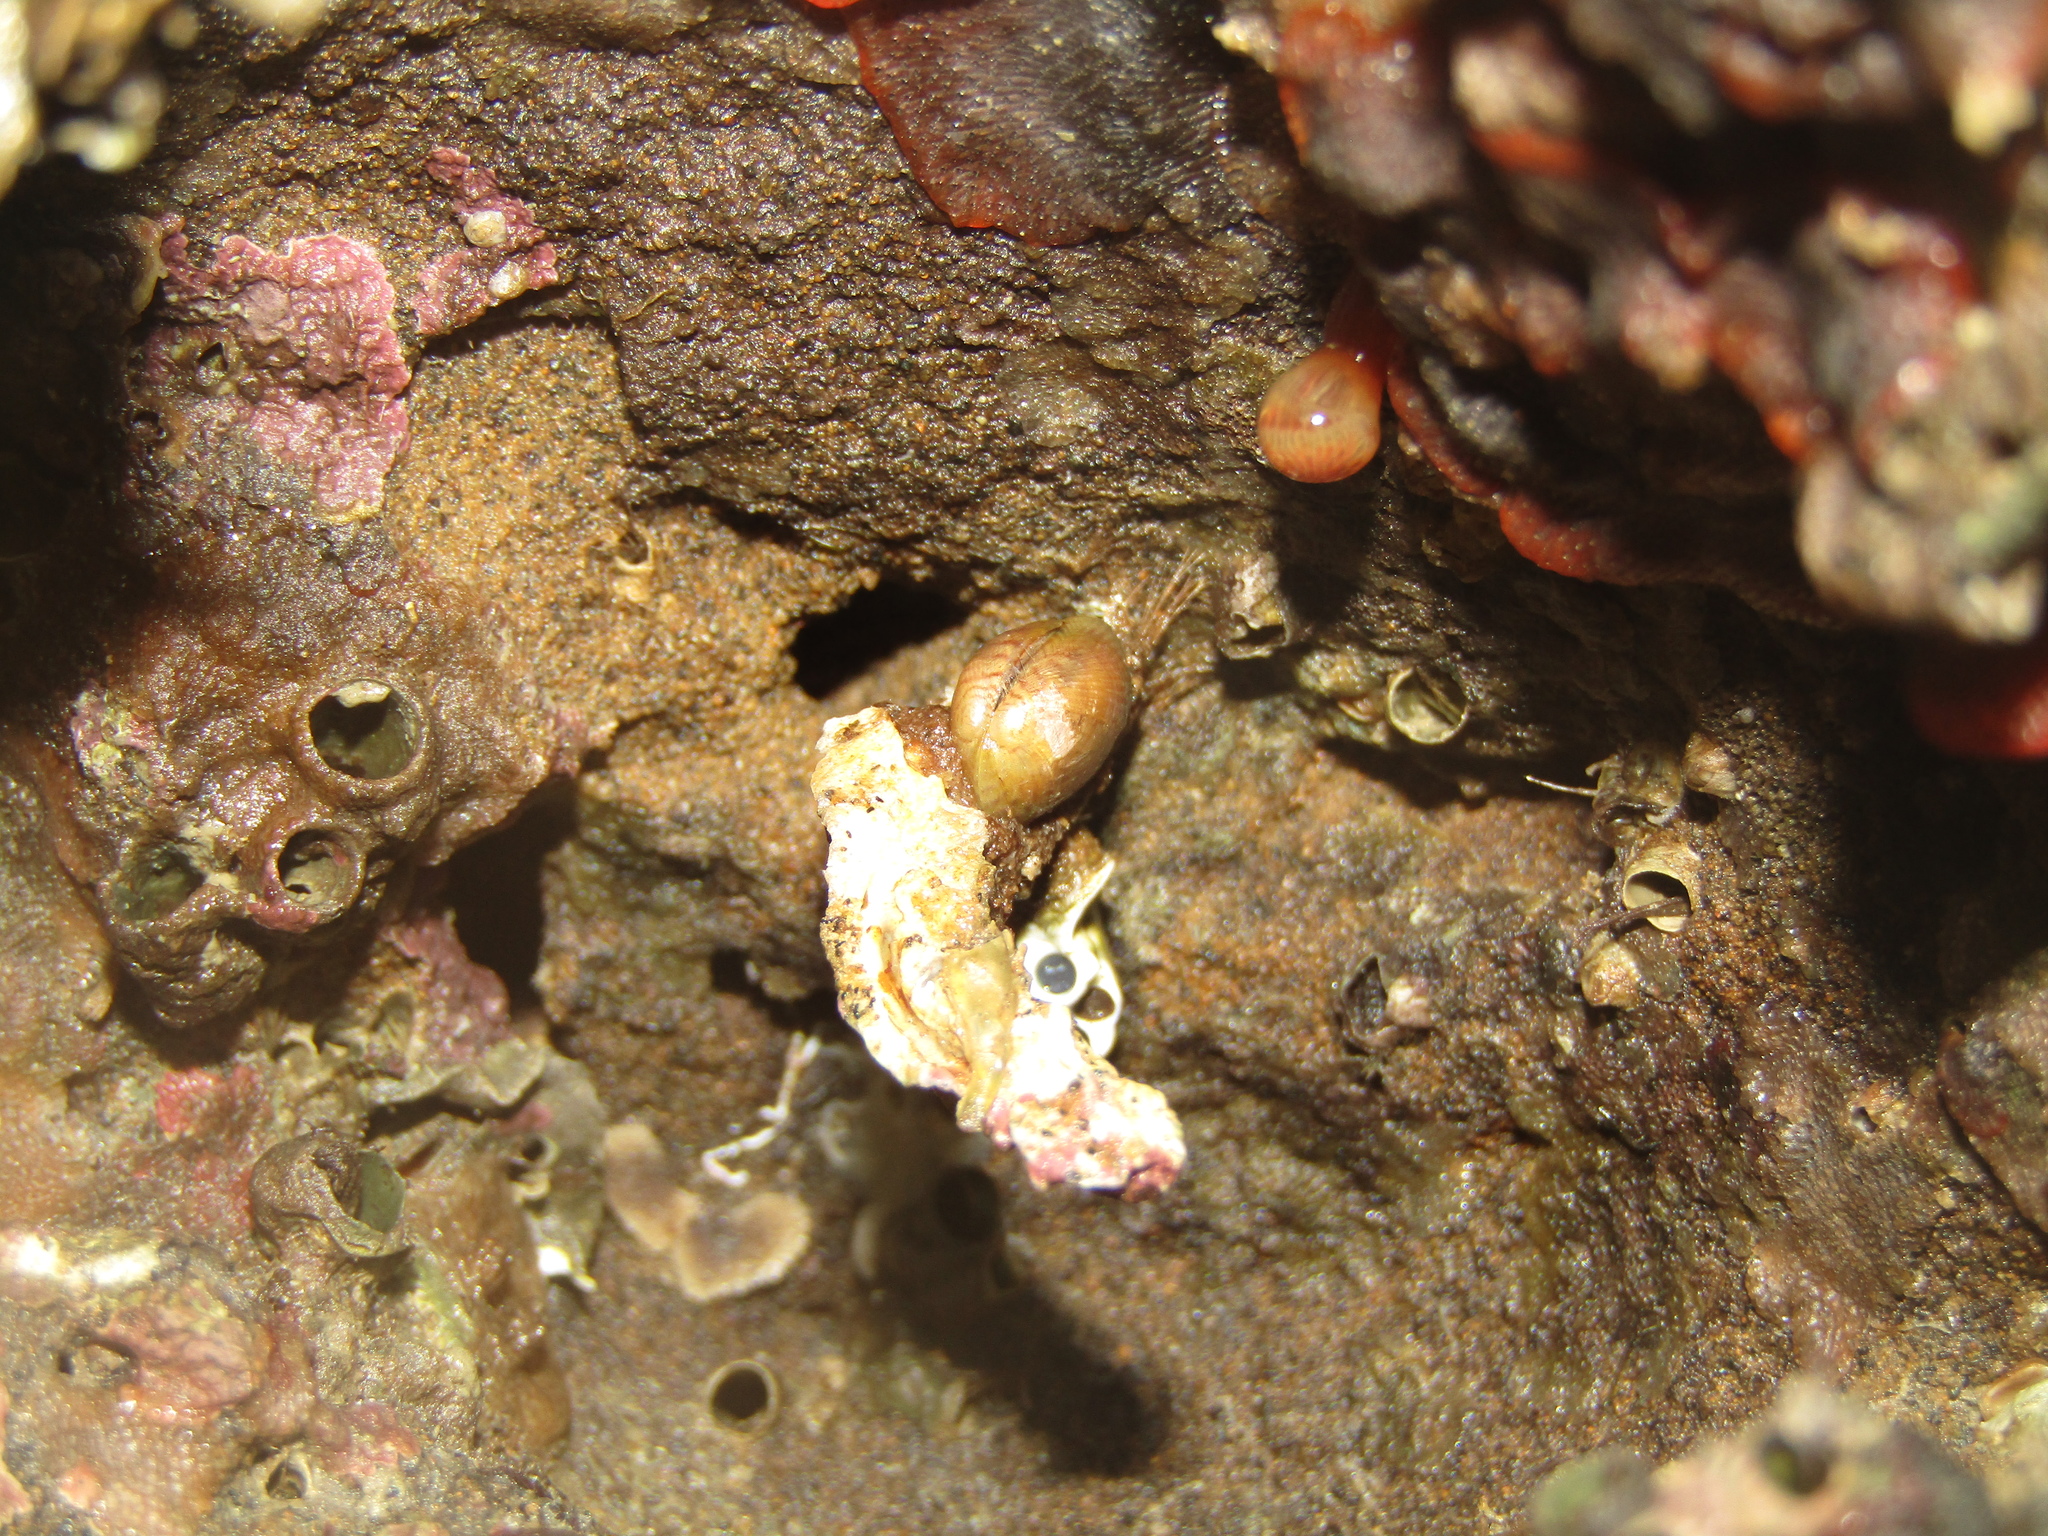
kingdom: Animalia
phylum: Mollusca
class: Bivalvia
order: Mytilida
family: Mytilidae
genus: Musculus
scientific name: Musculus impactus
